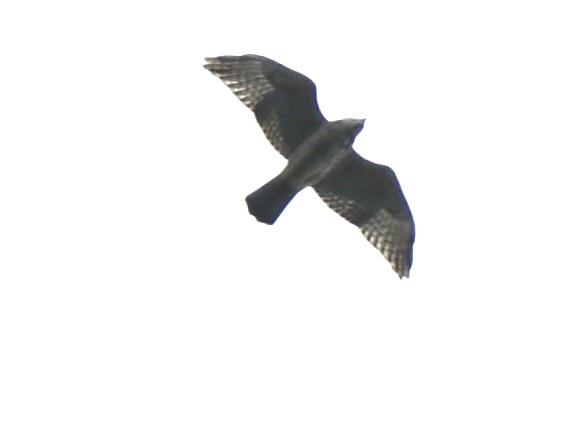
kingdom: Animalia
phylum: Chordata
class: Aves
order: Accipitriformes
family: Accipitridae
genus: Buteo
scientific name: Buteo platypterus
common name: Broad-winged hawk
